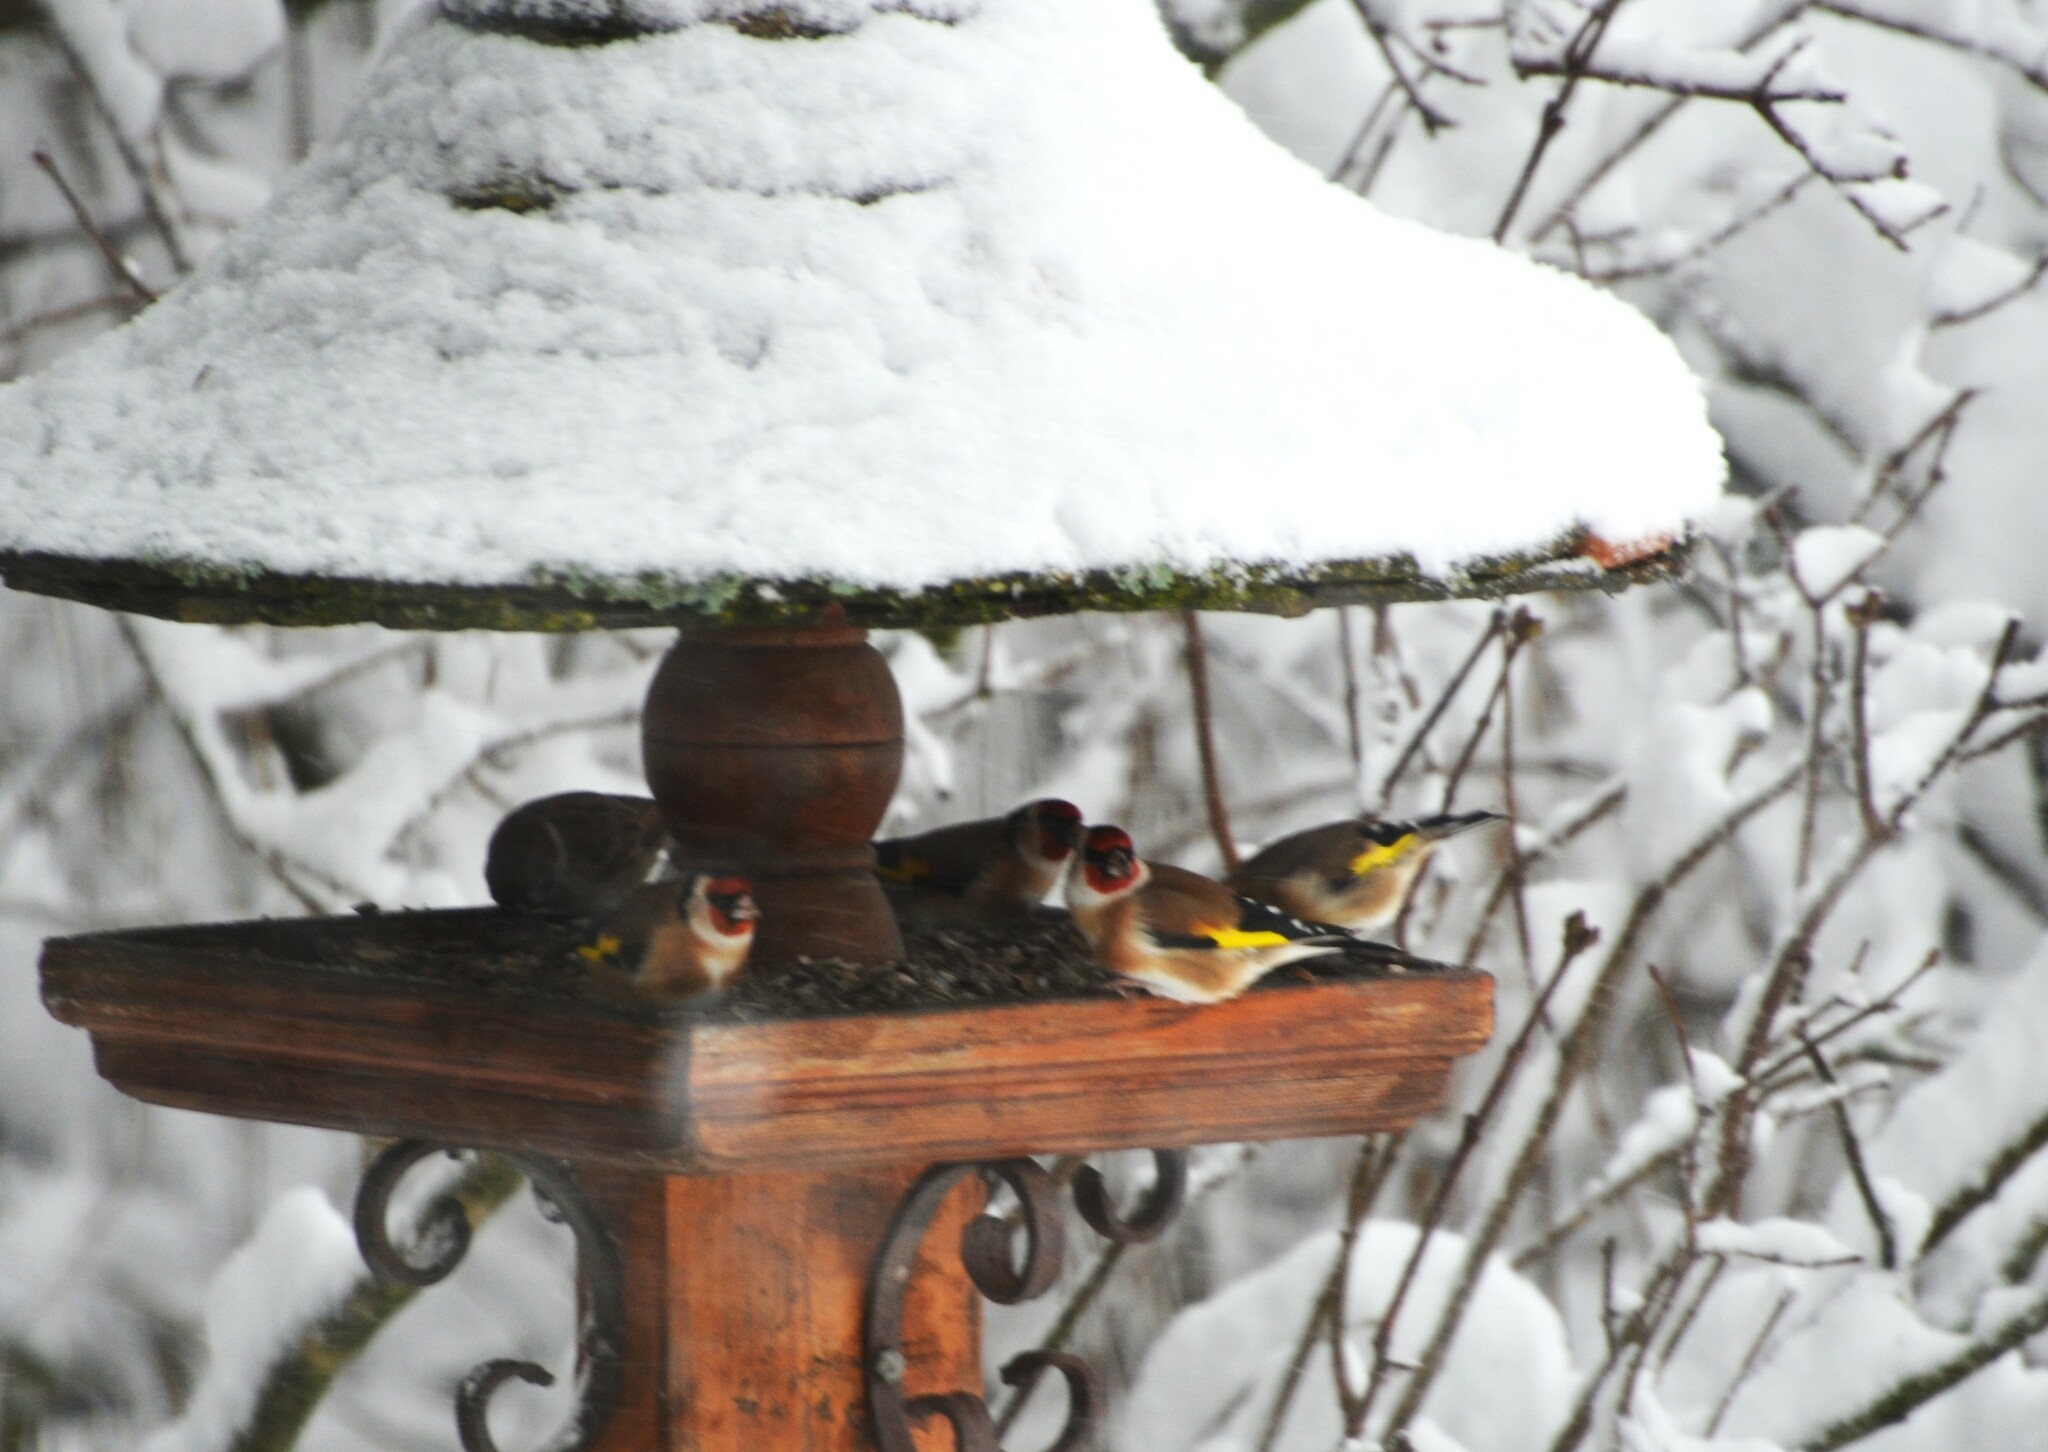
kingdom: Animalia
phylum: Chordata
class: Aves
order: Passeriformes
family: Fringillidae
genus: Carduelis
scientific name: Carduelis carduelis
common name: European goldfinch
